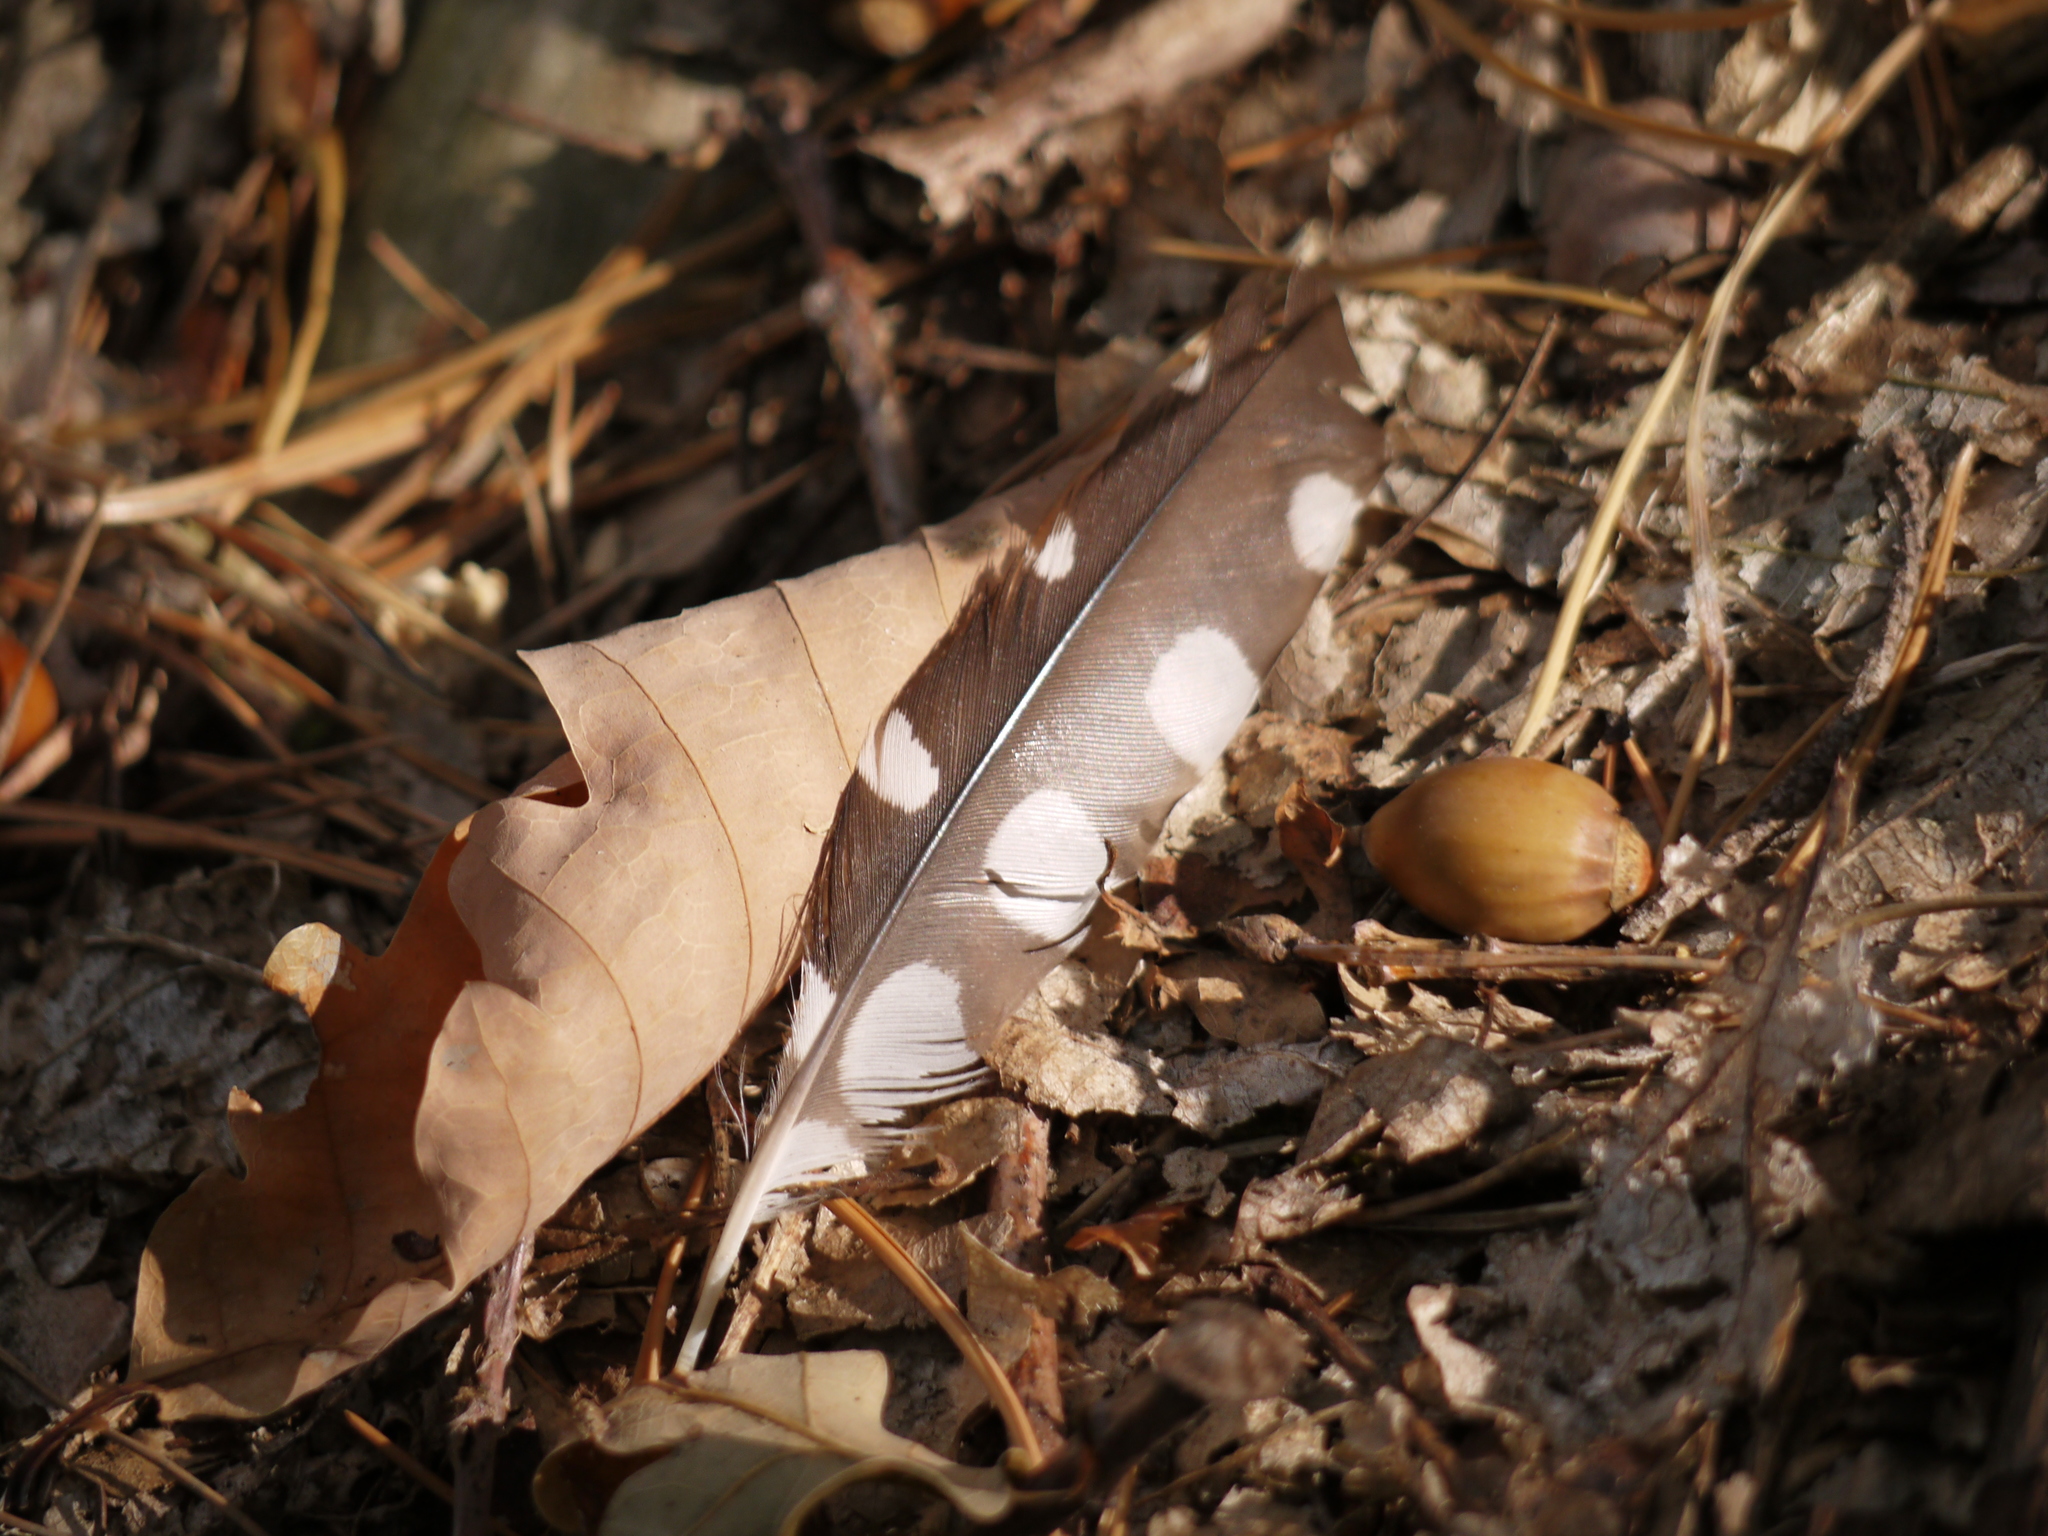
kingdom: Animalia
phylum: Chordata
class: Aves
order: Piciformes
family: Picidae
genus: Dendrocopos
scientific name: Dendrocopos major
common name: Great spotted woodpecker
